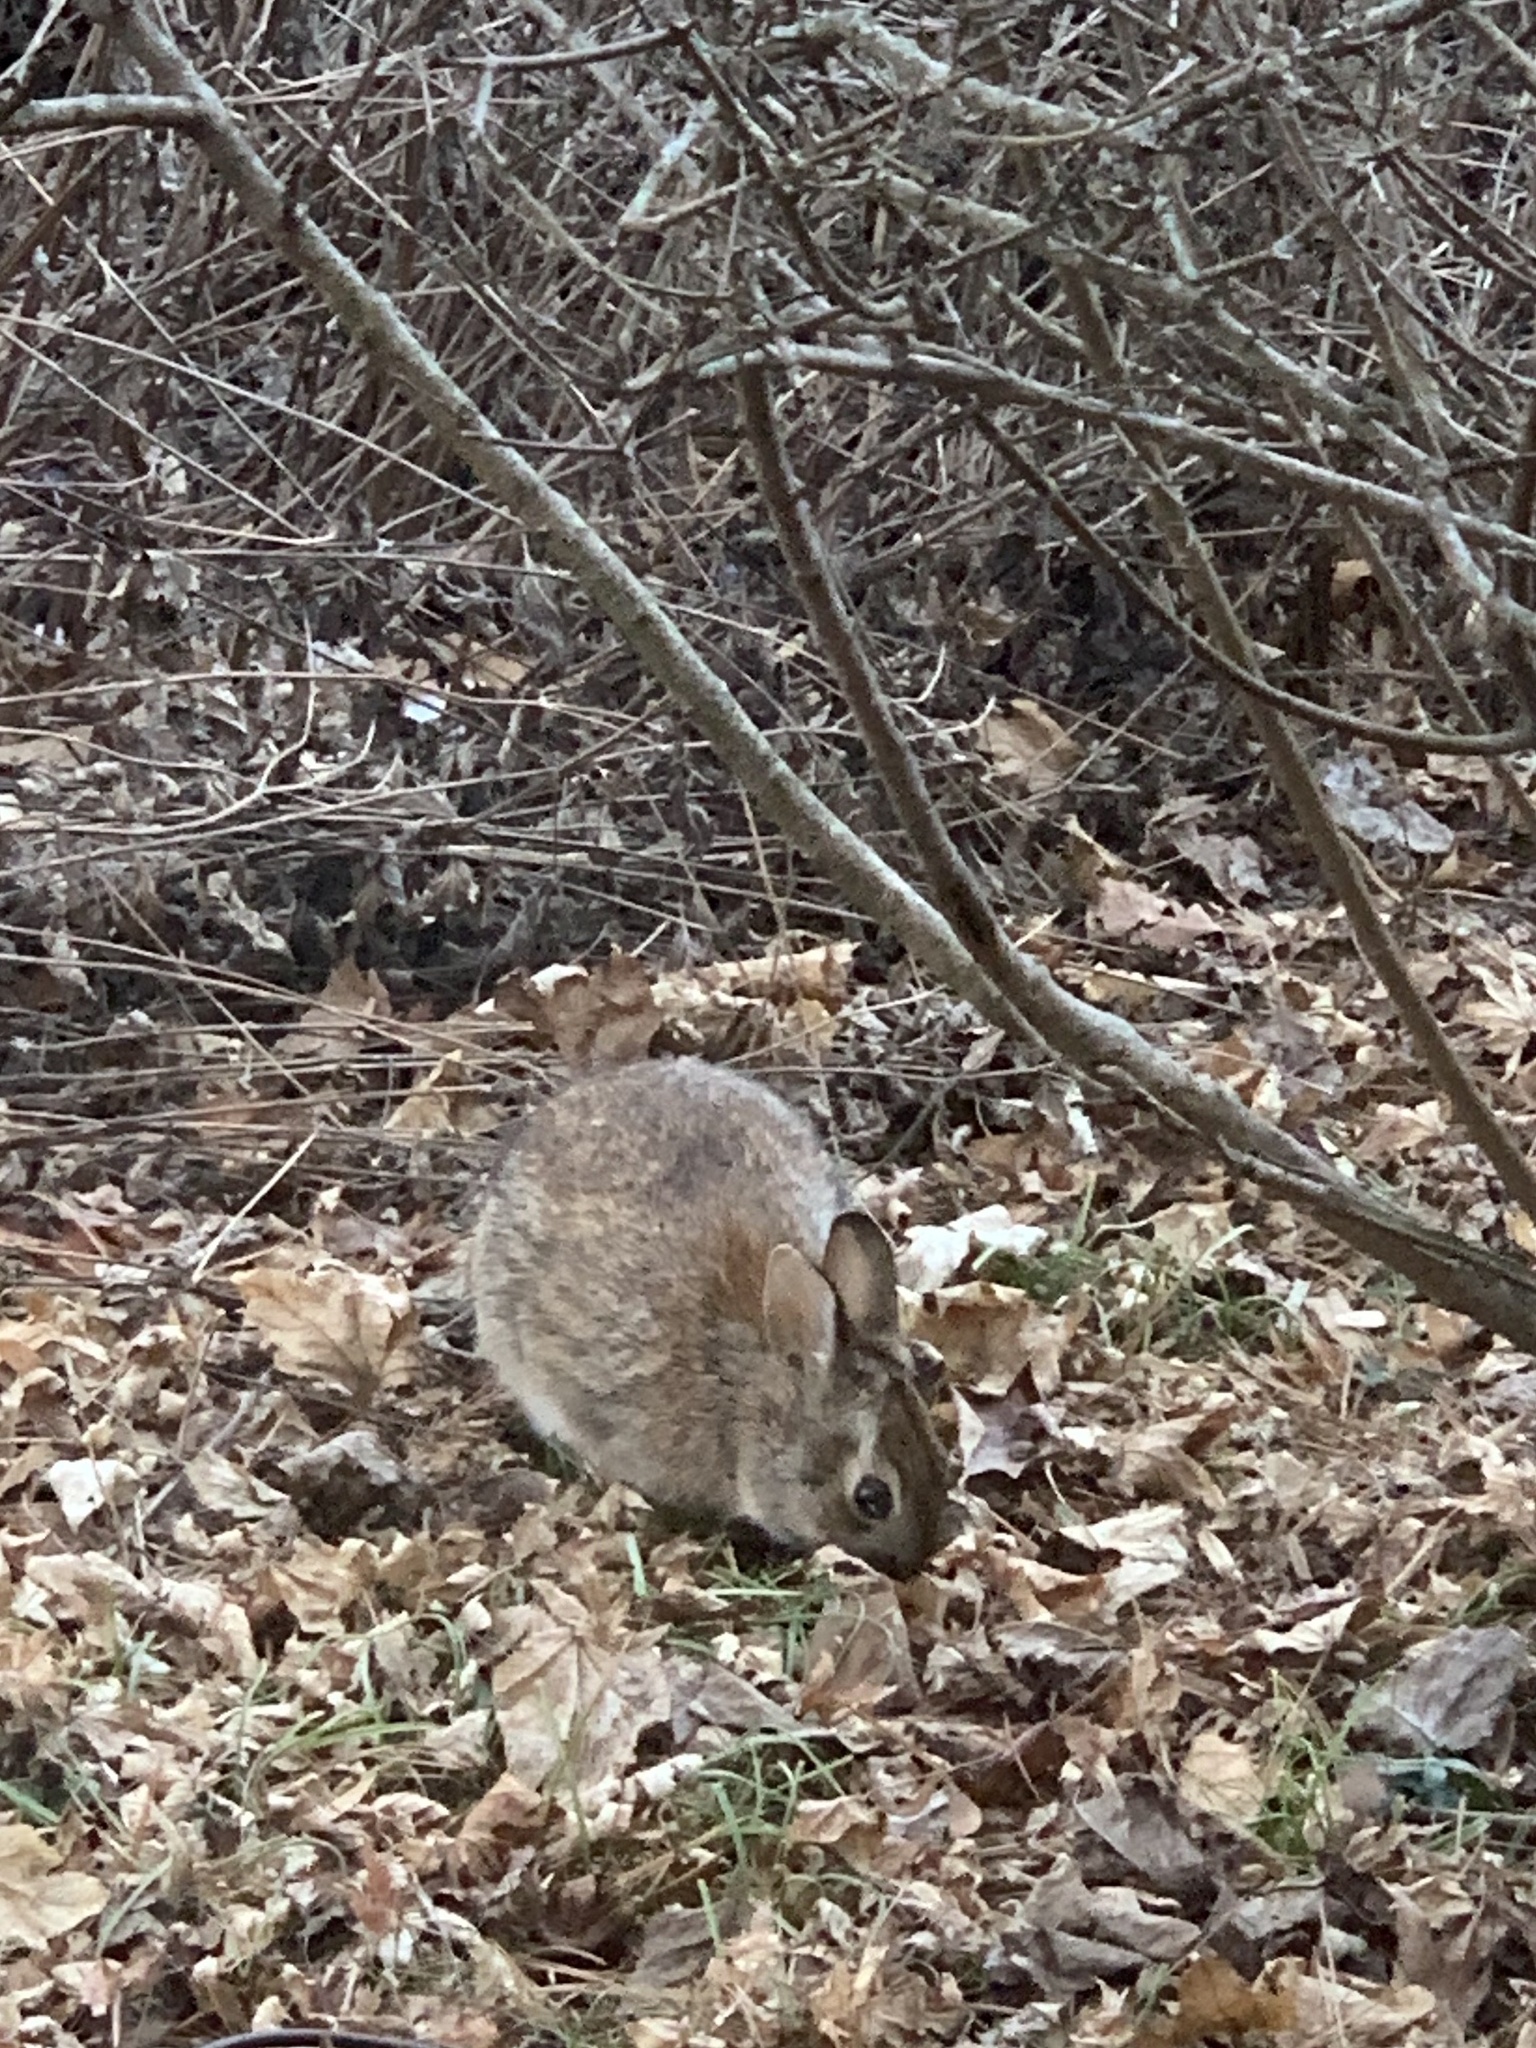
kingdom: Animalia
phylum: Chordata
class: Mammalia
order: Lagomorpha
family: Leporidae
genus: Sylvilagus
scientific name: Sylvilagus floridanus
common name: Eastern cottontail
